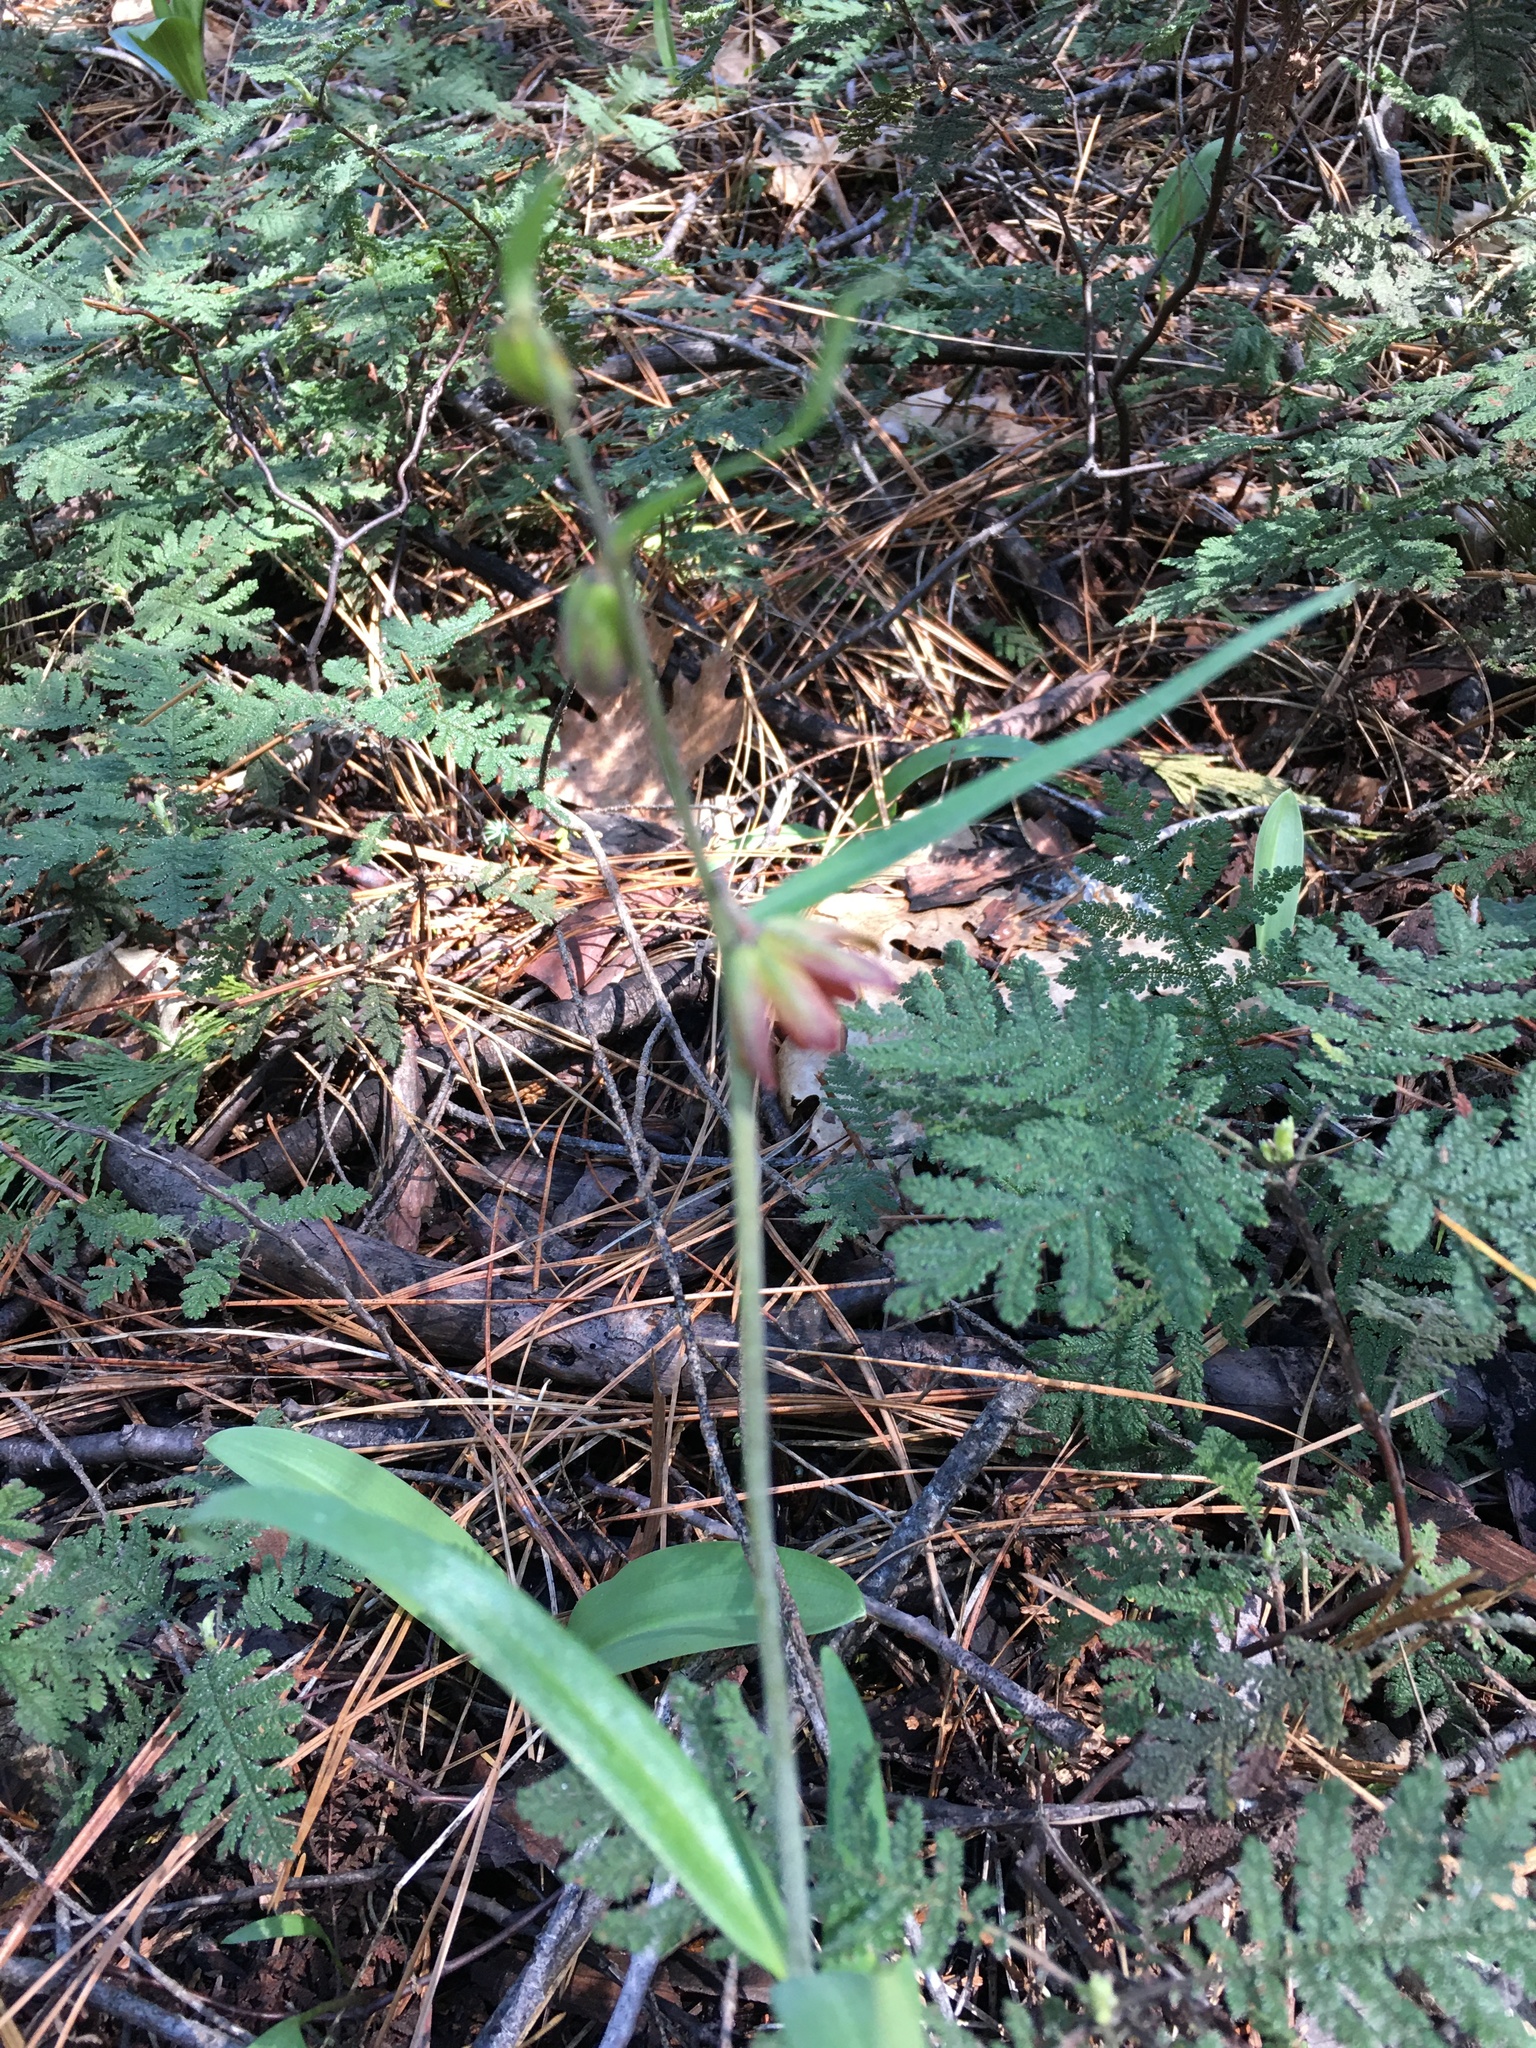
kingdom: Plantae
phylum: Tracheophyta
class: Liliopsida
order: Liliales
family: Liliaceae
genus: Fritillaria
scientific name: Fritillaria micrantha
